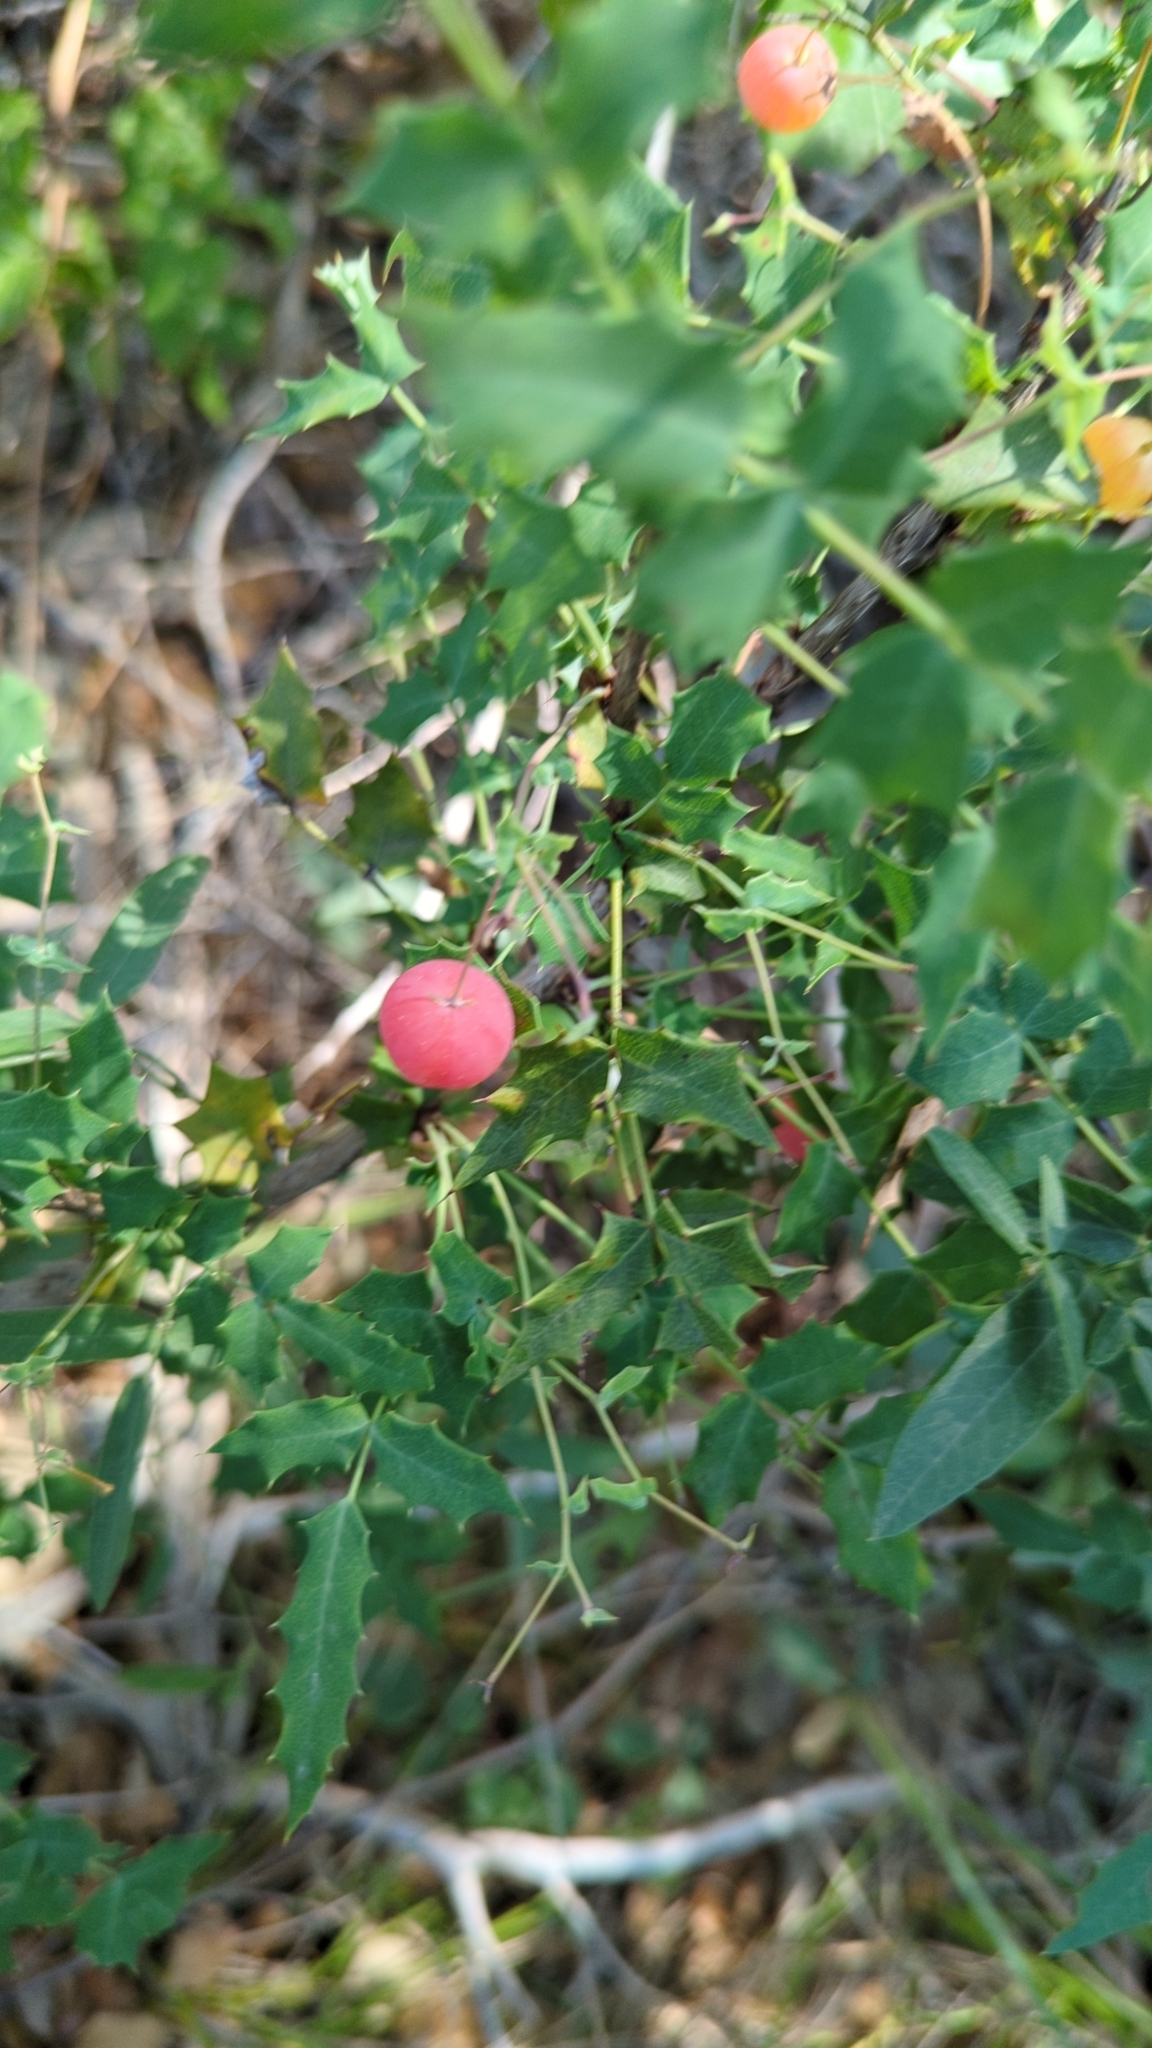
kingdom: Plantae
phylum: Tracheophyta
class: Magnoliopsida
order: Ranunculales
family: Berberidaceae
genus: Berberis
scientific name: Berberis swaseyi
